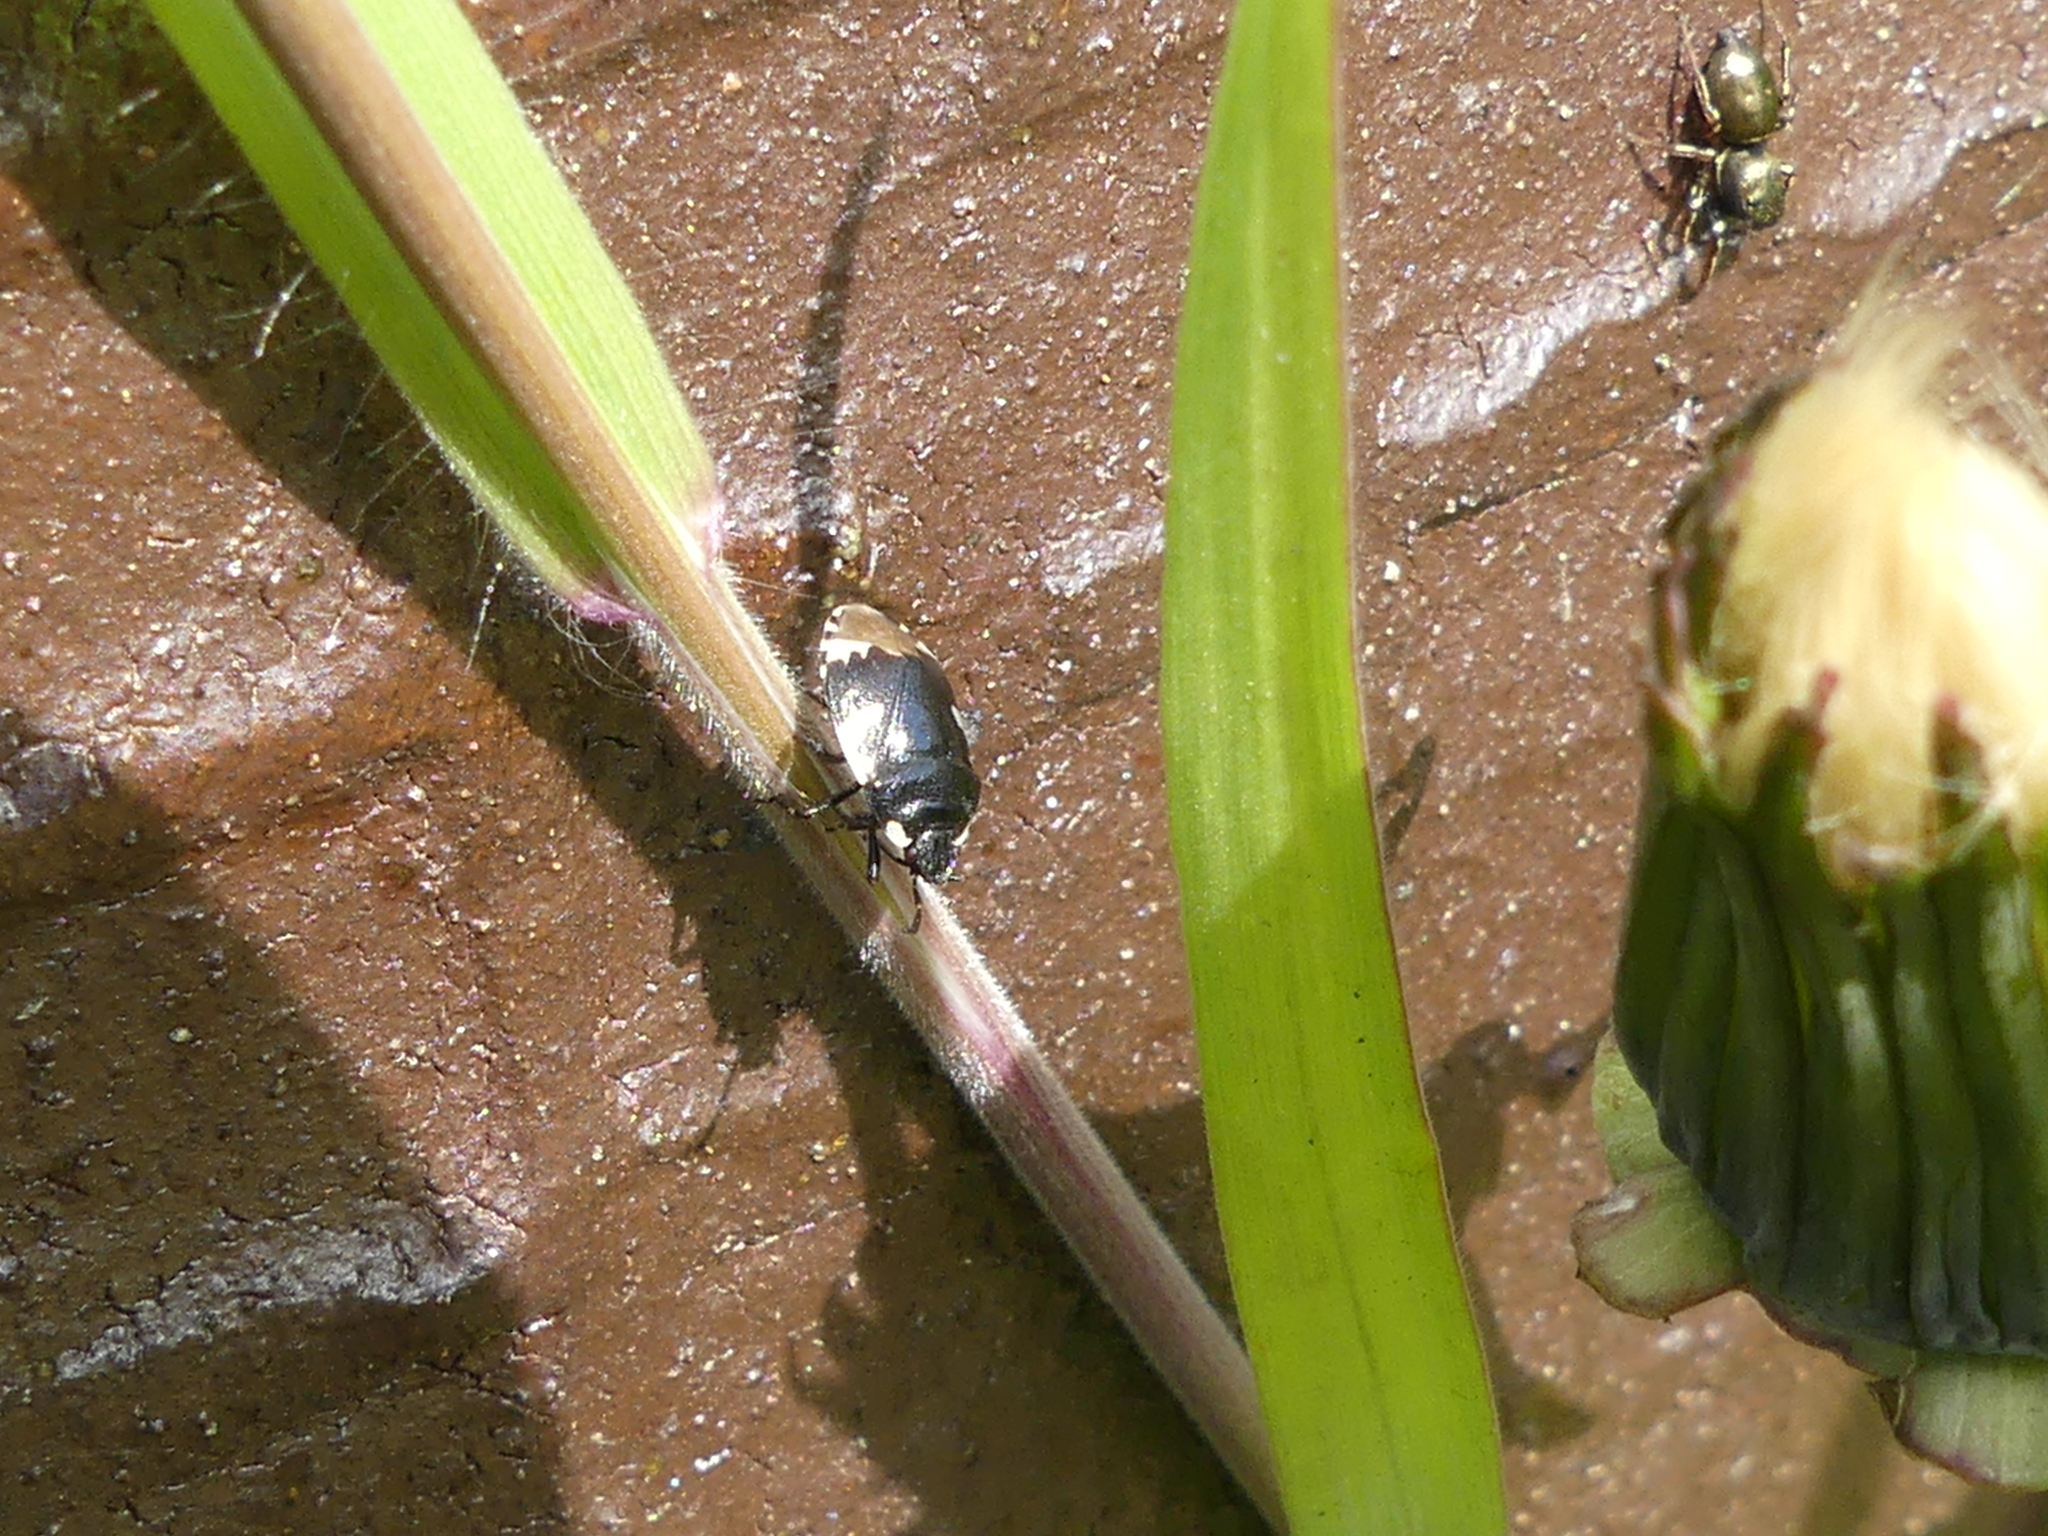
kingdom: Animalia
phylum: Arthropoda
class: Insecta
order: Hemiptera
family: Cydnidae
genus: Tritomegas
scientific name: Tritomegas bicolor
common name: Pied shieldbug
